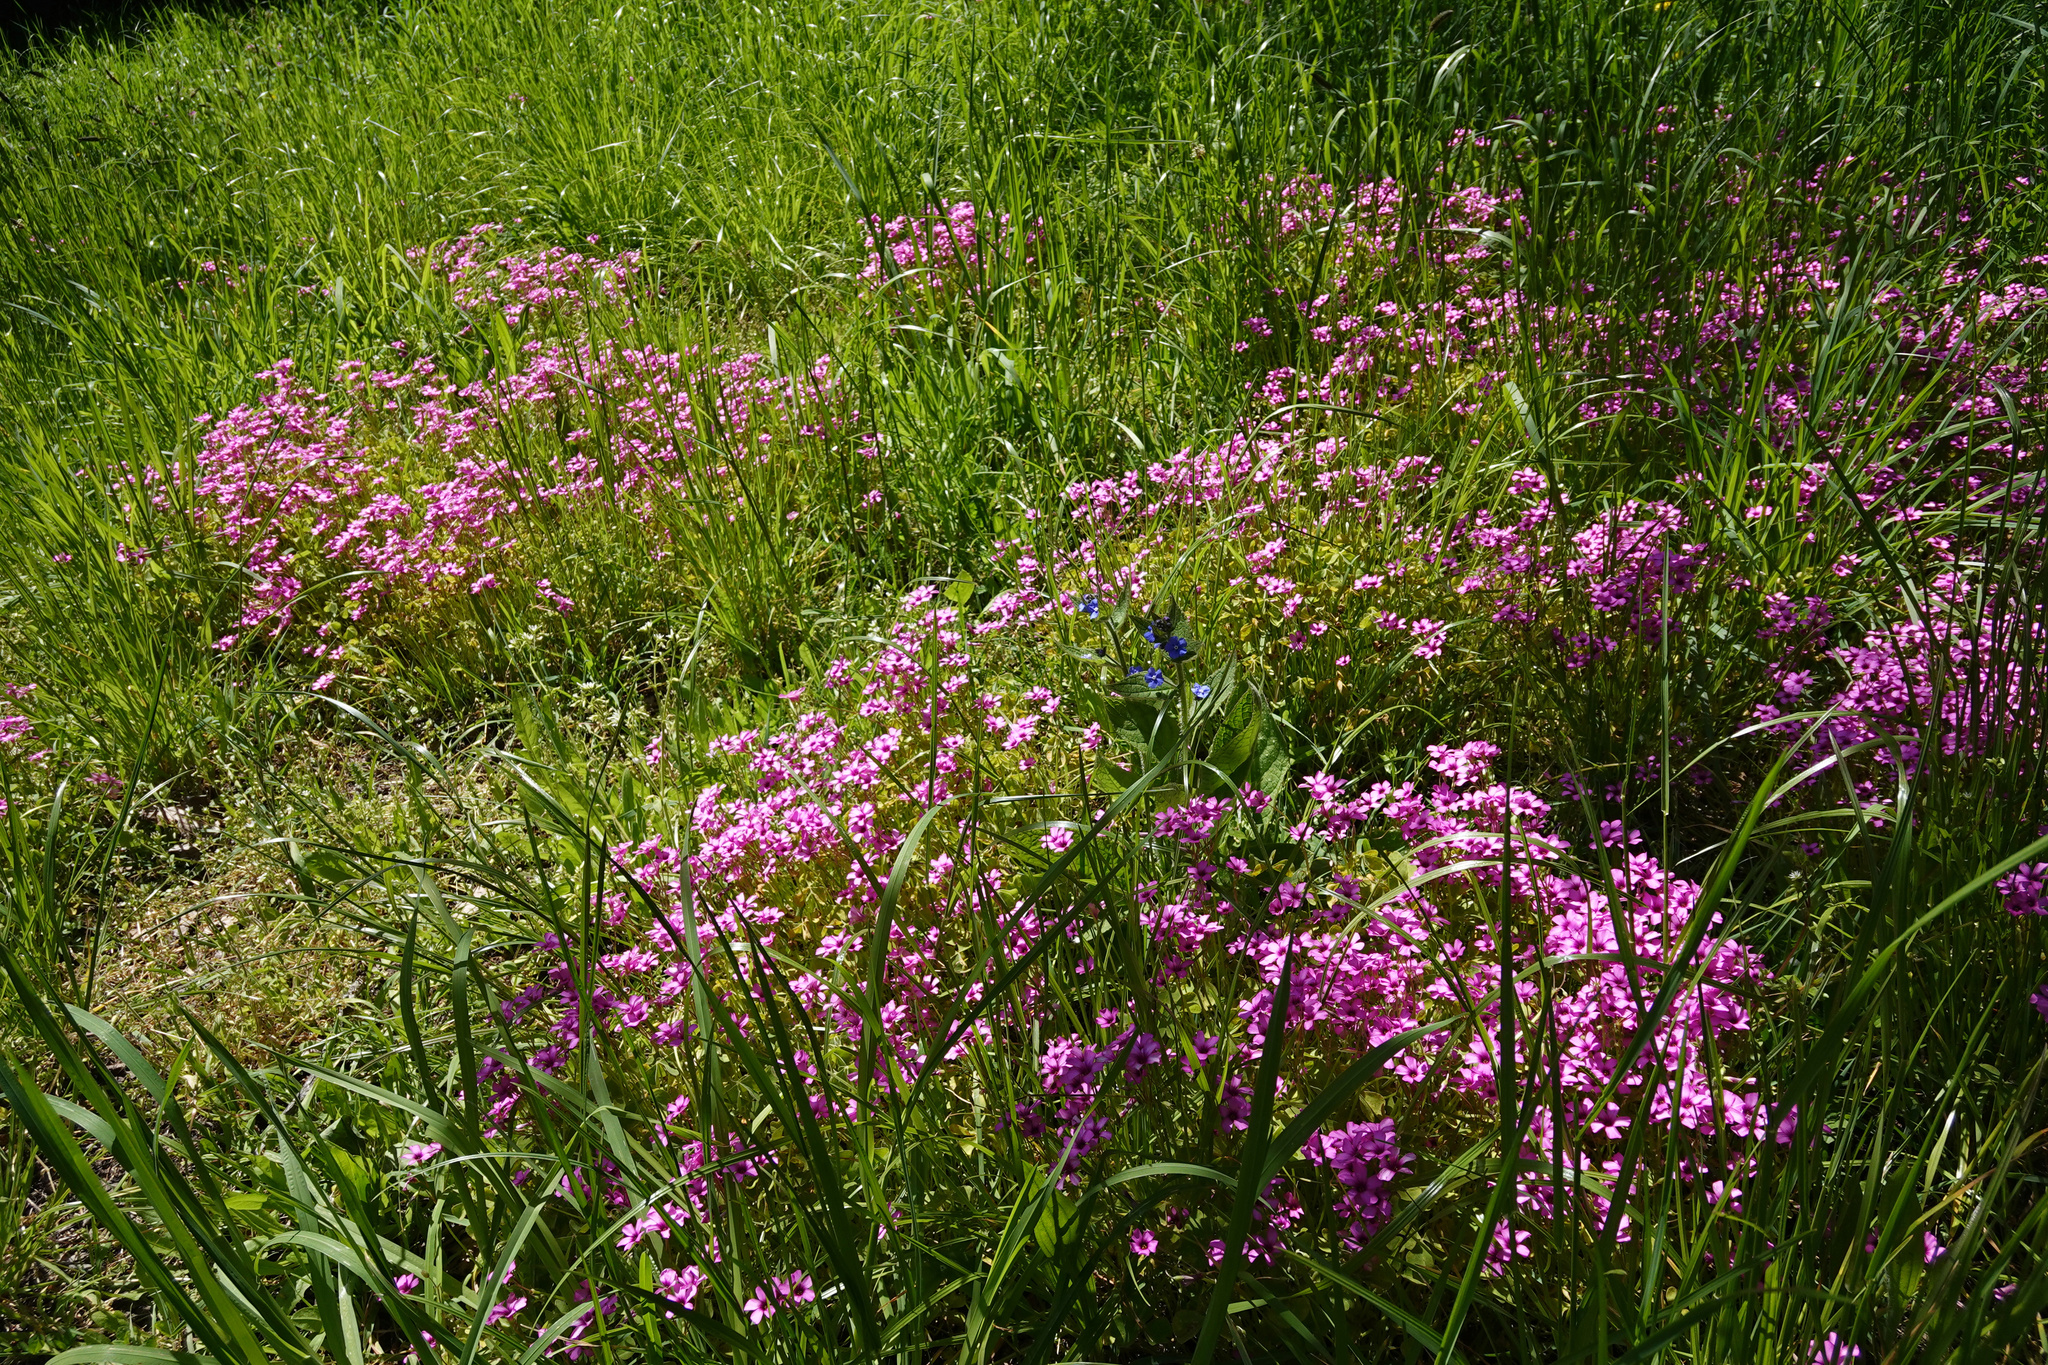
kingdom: Plantae
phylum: Tracheophyta
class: Magnoliopsida
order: Oxalidales
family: Oxalidaceae
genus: Oxalis
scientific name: Oxalis articulata
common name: Pink-sorrel
